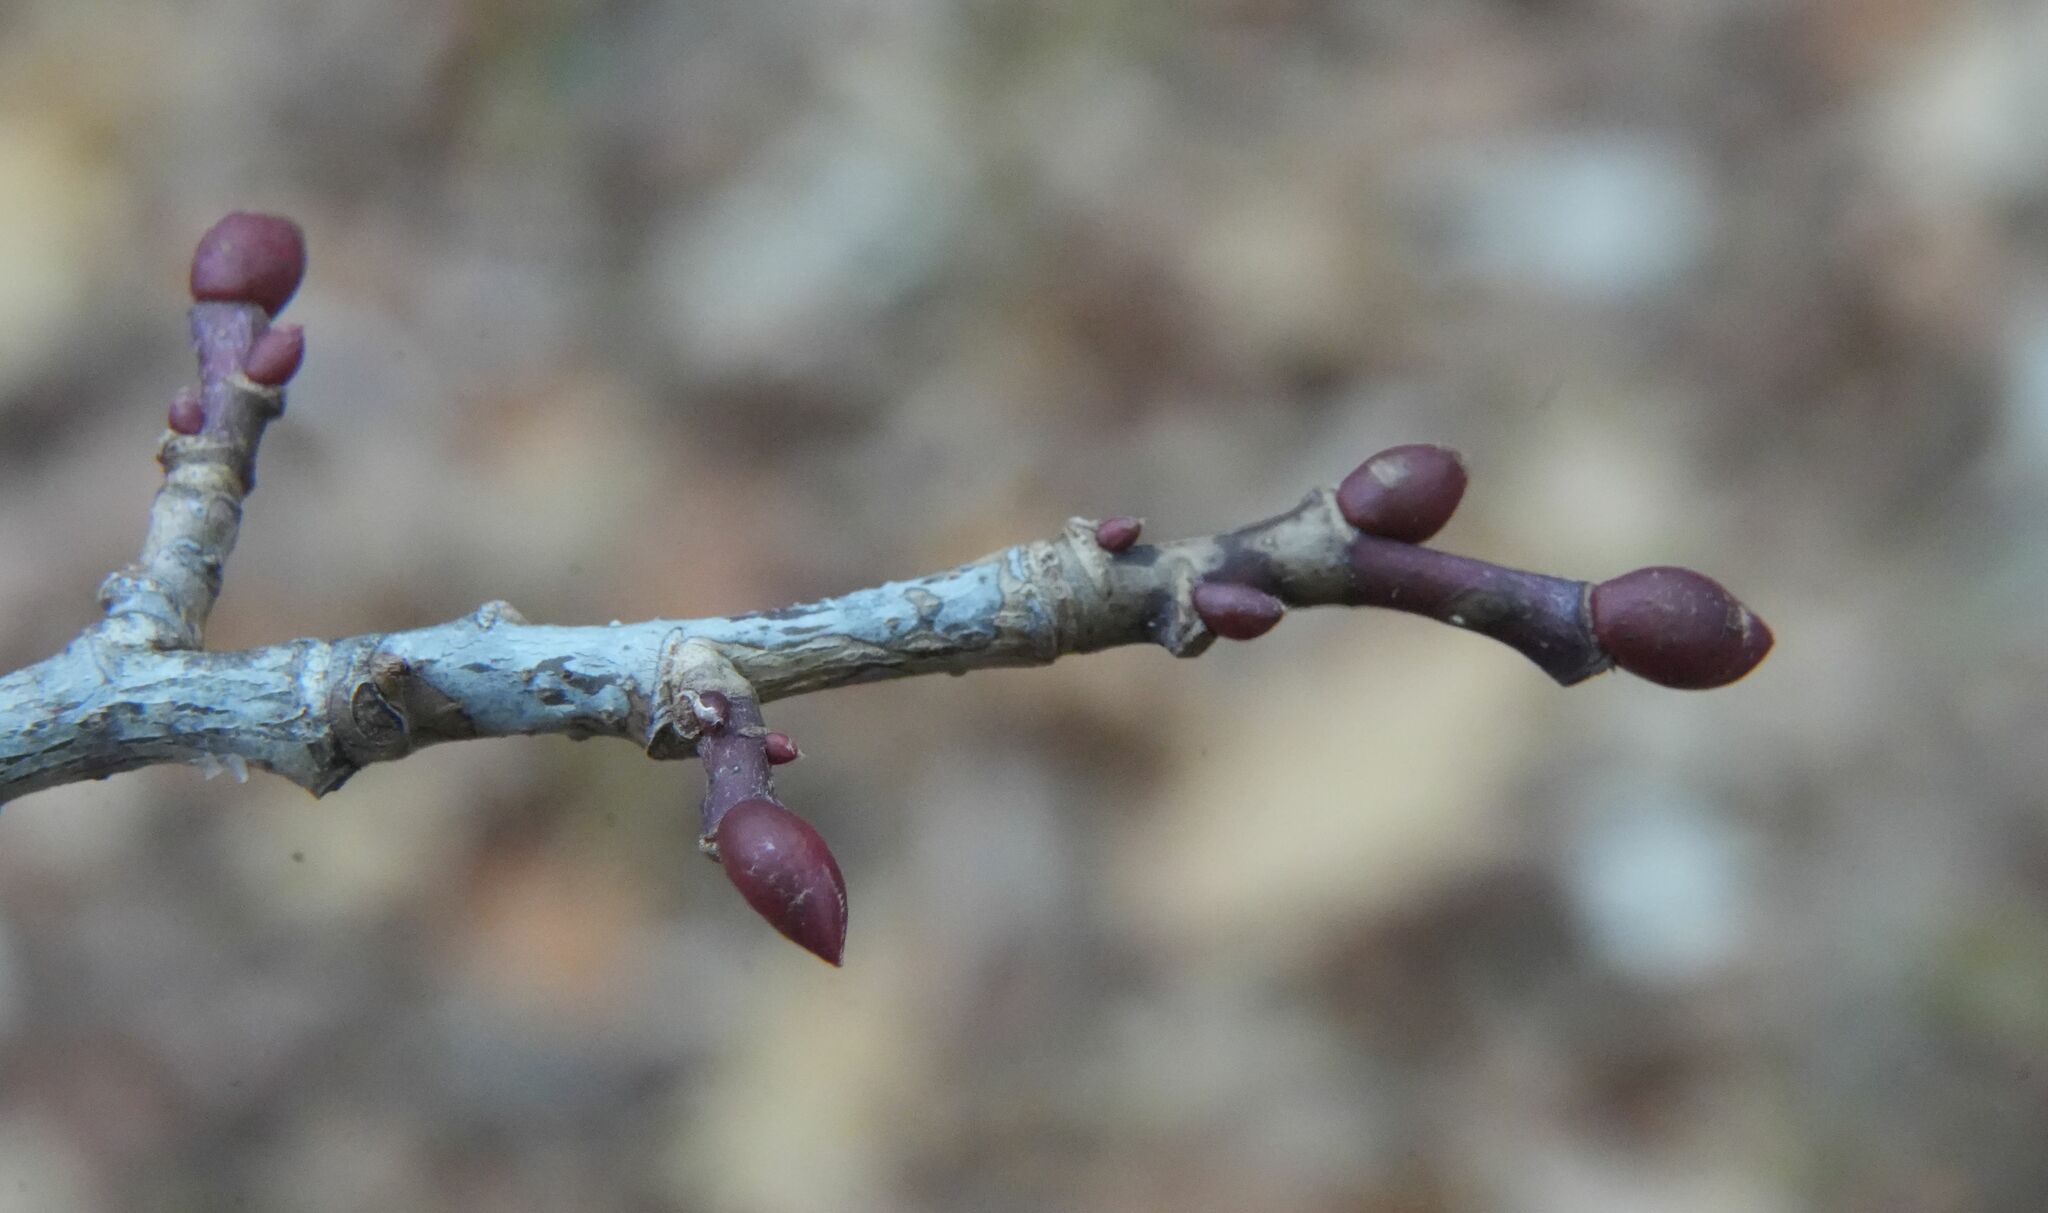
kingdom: Plantae
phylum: Tracheophyta
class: Magnoliopsida
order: Malvales
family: Malvaceae
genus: Tilia
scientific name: Tilia americana
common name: Basswood
